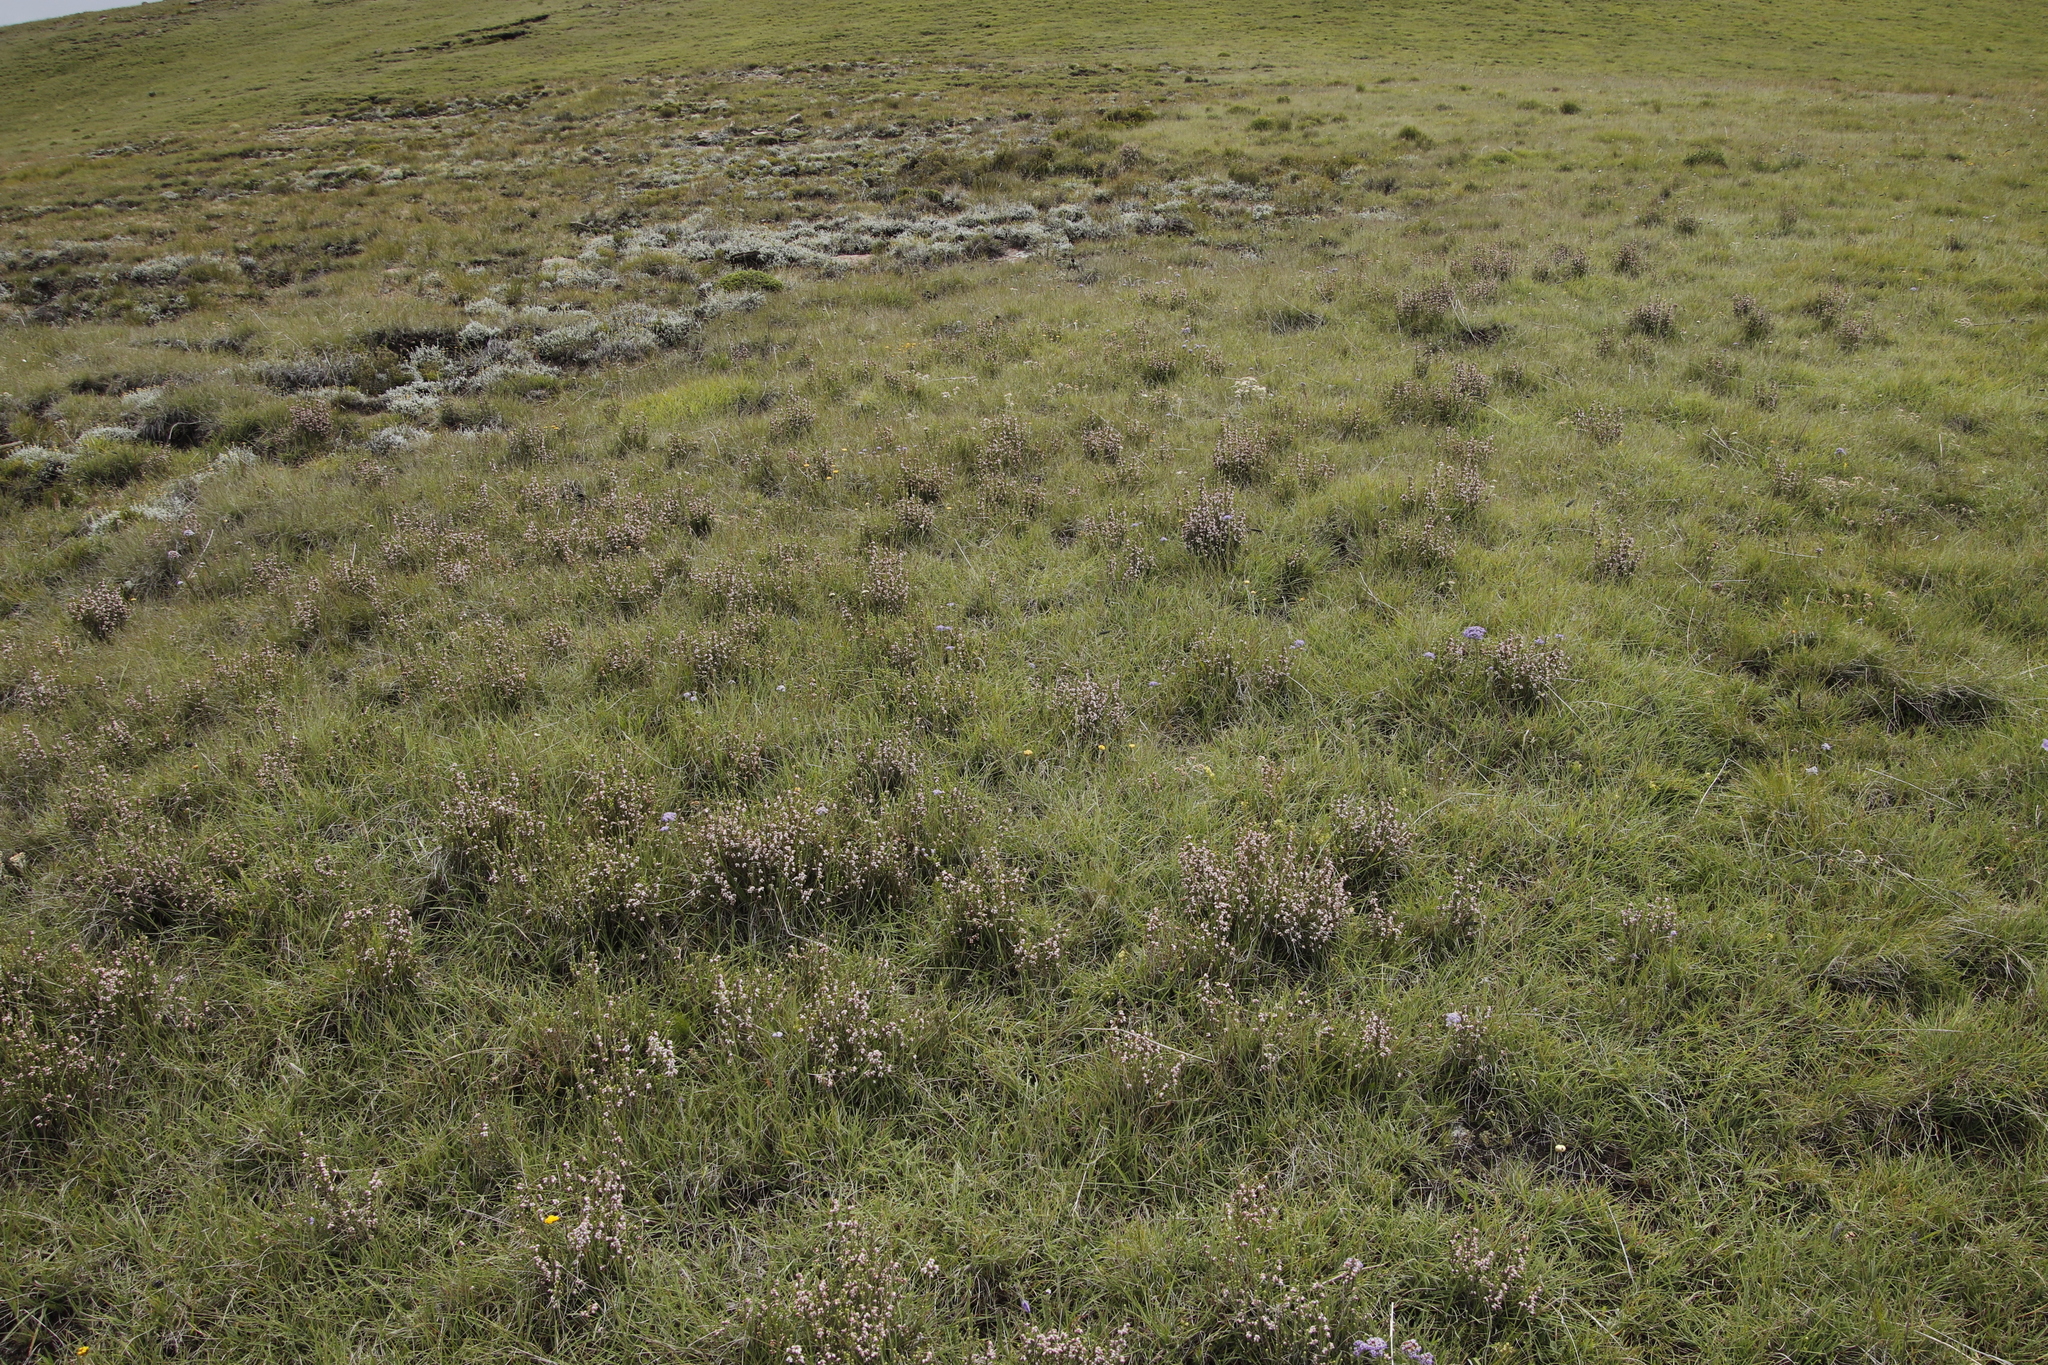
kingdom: Plantae
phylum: Tracheophyta
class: Magnoliopsida
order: Ericales
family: Ericaceae
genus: Erica
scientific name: Erica algida
